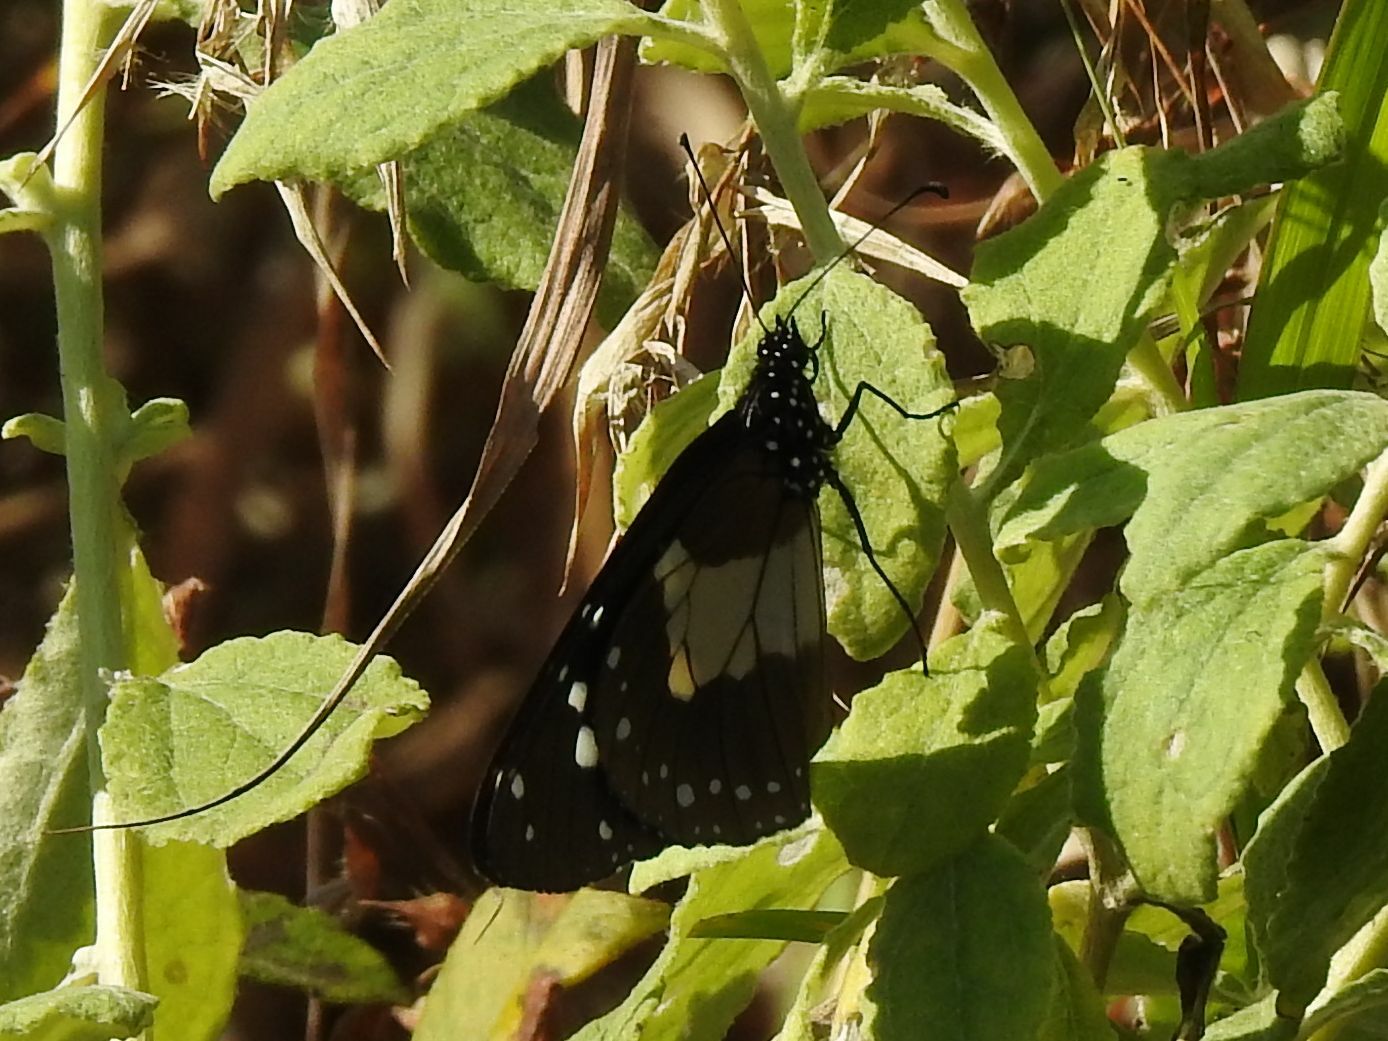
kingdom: Animalia
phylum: Arthropoda
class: Insecta
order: Lepidoptera
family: Nymphalidae
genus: Amauris
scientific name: Amauris echeria
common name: Chief
